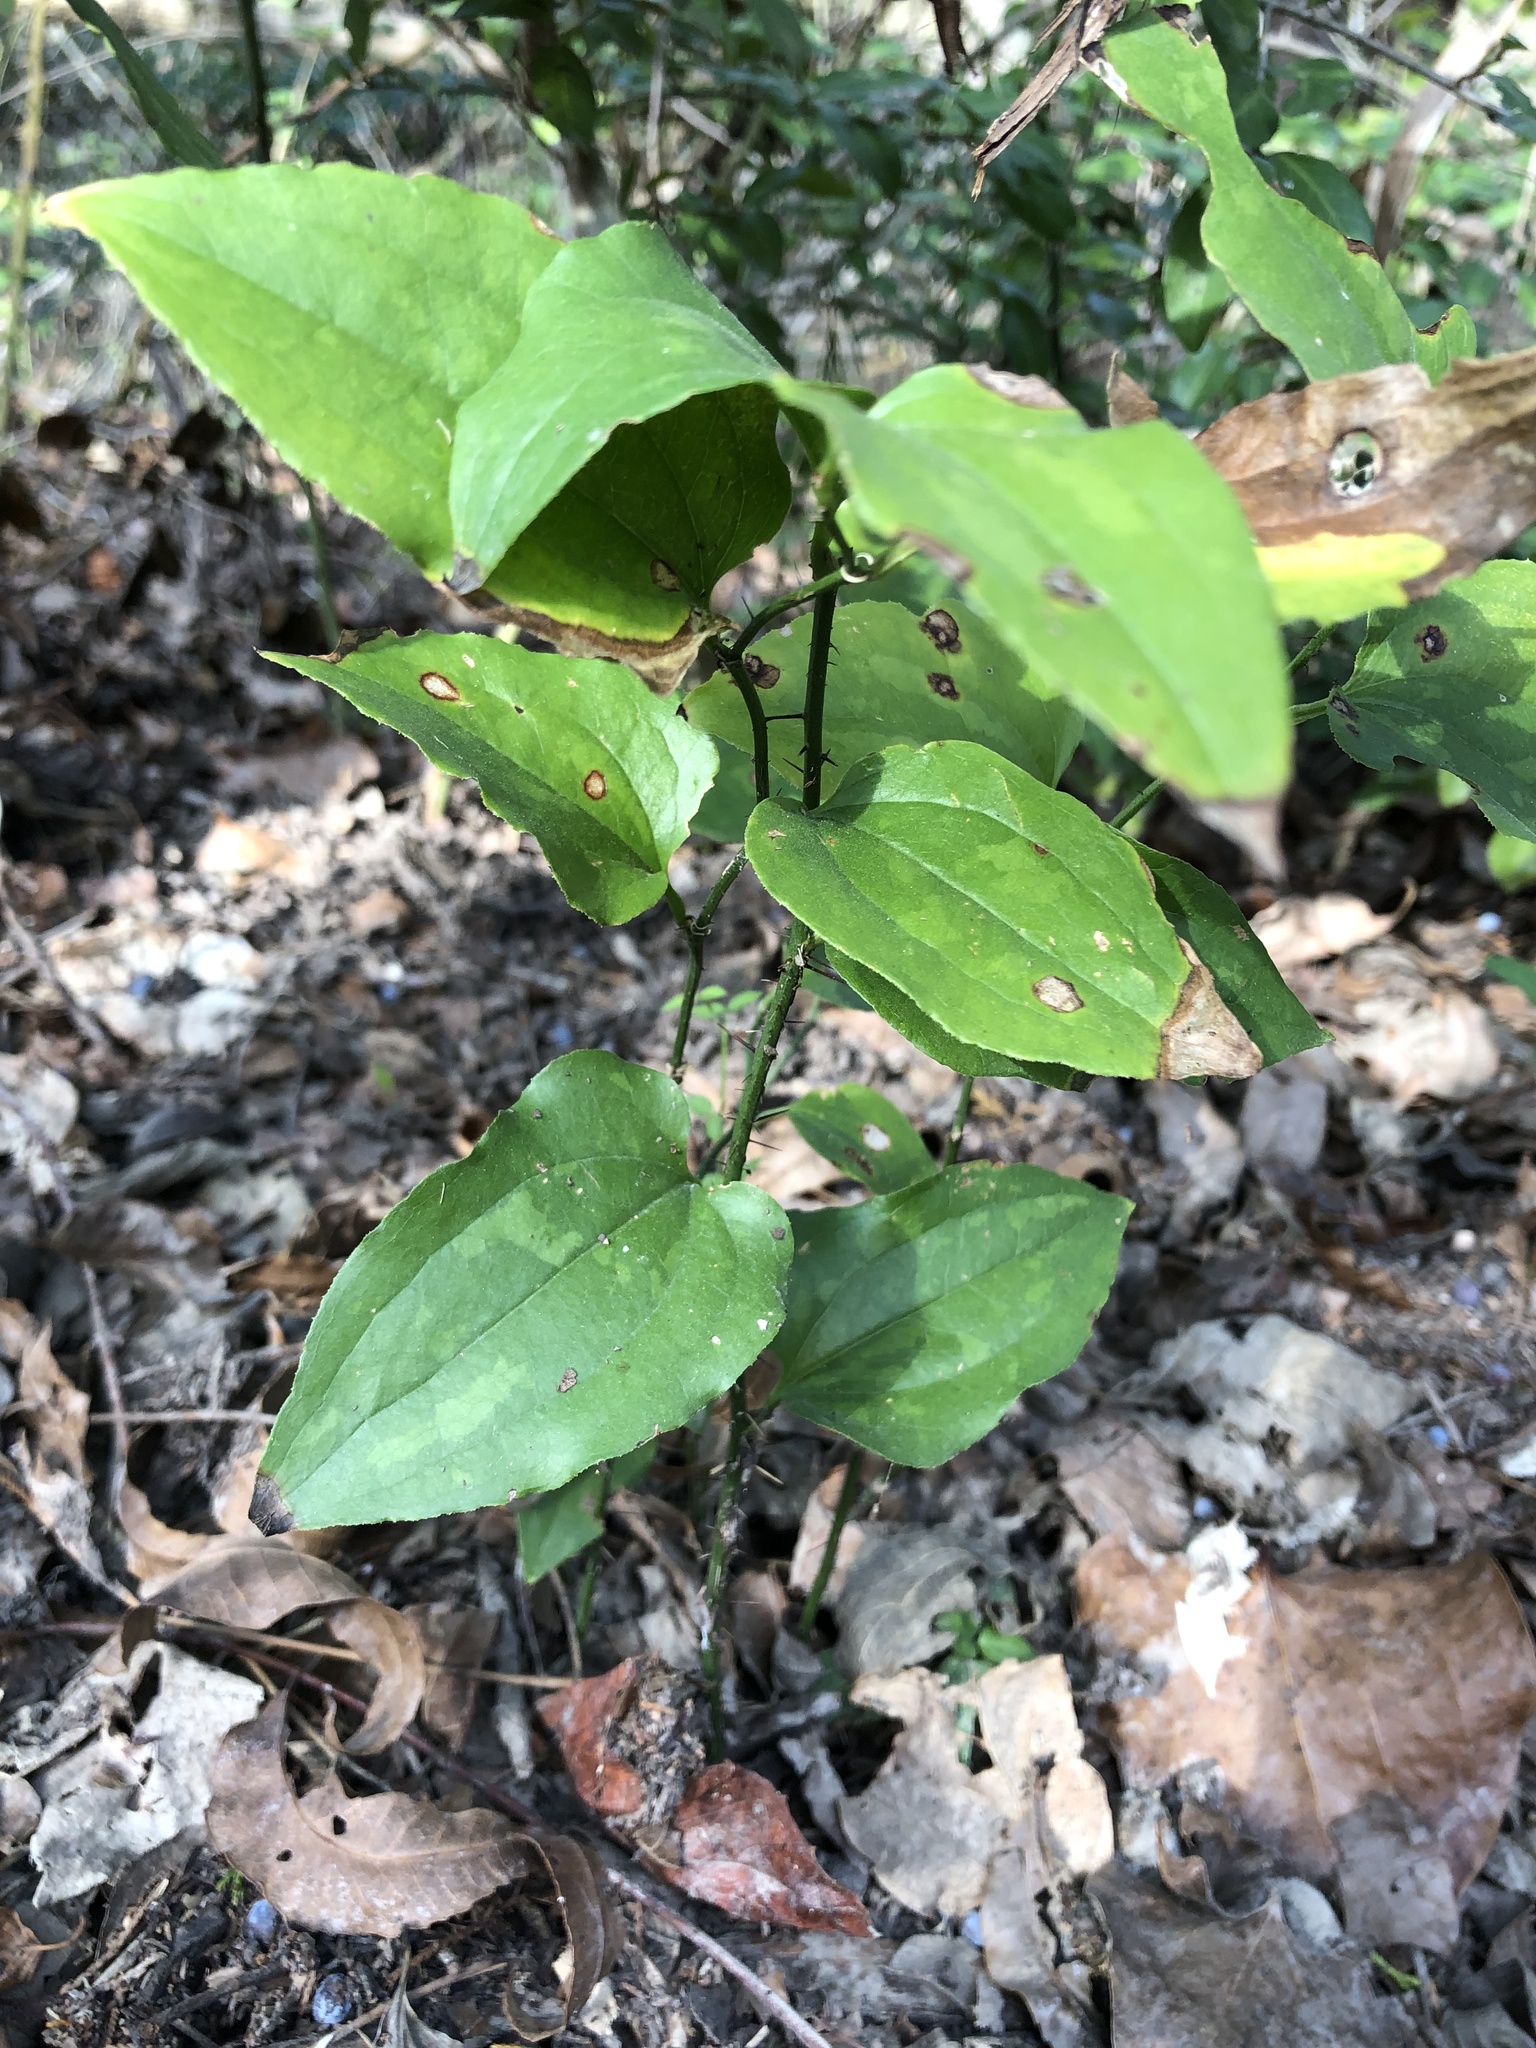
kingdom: Plantae
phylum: Tracheophyta
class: Liliopsida
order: Liliales
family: Smilacaceae
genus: Smilax
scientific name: Smilax tamnoides
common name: Hellfetter
